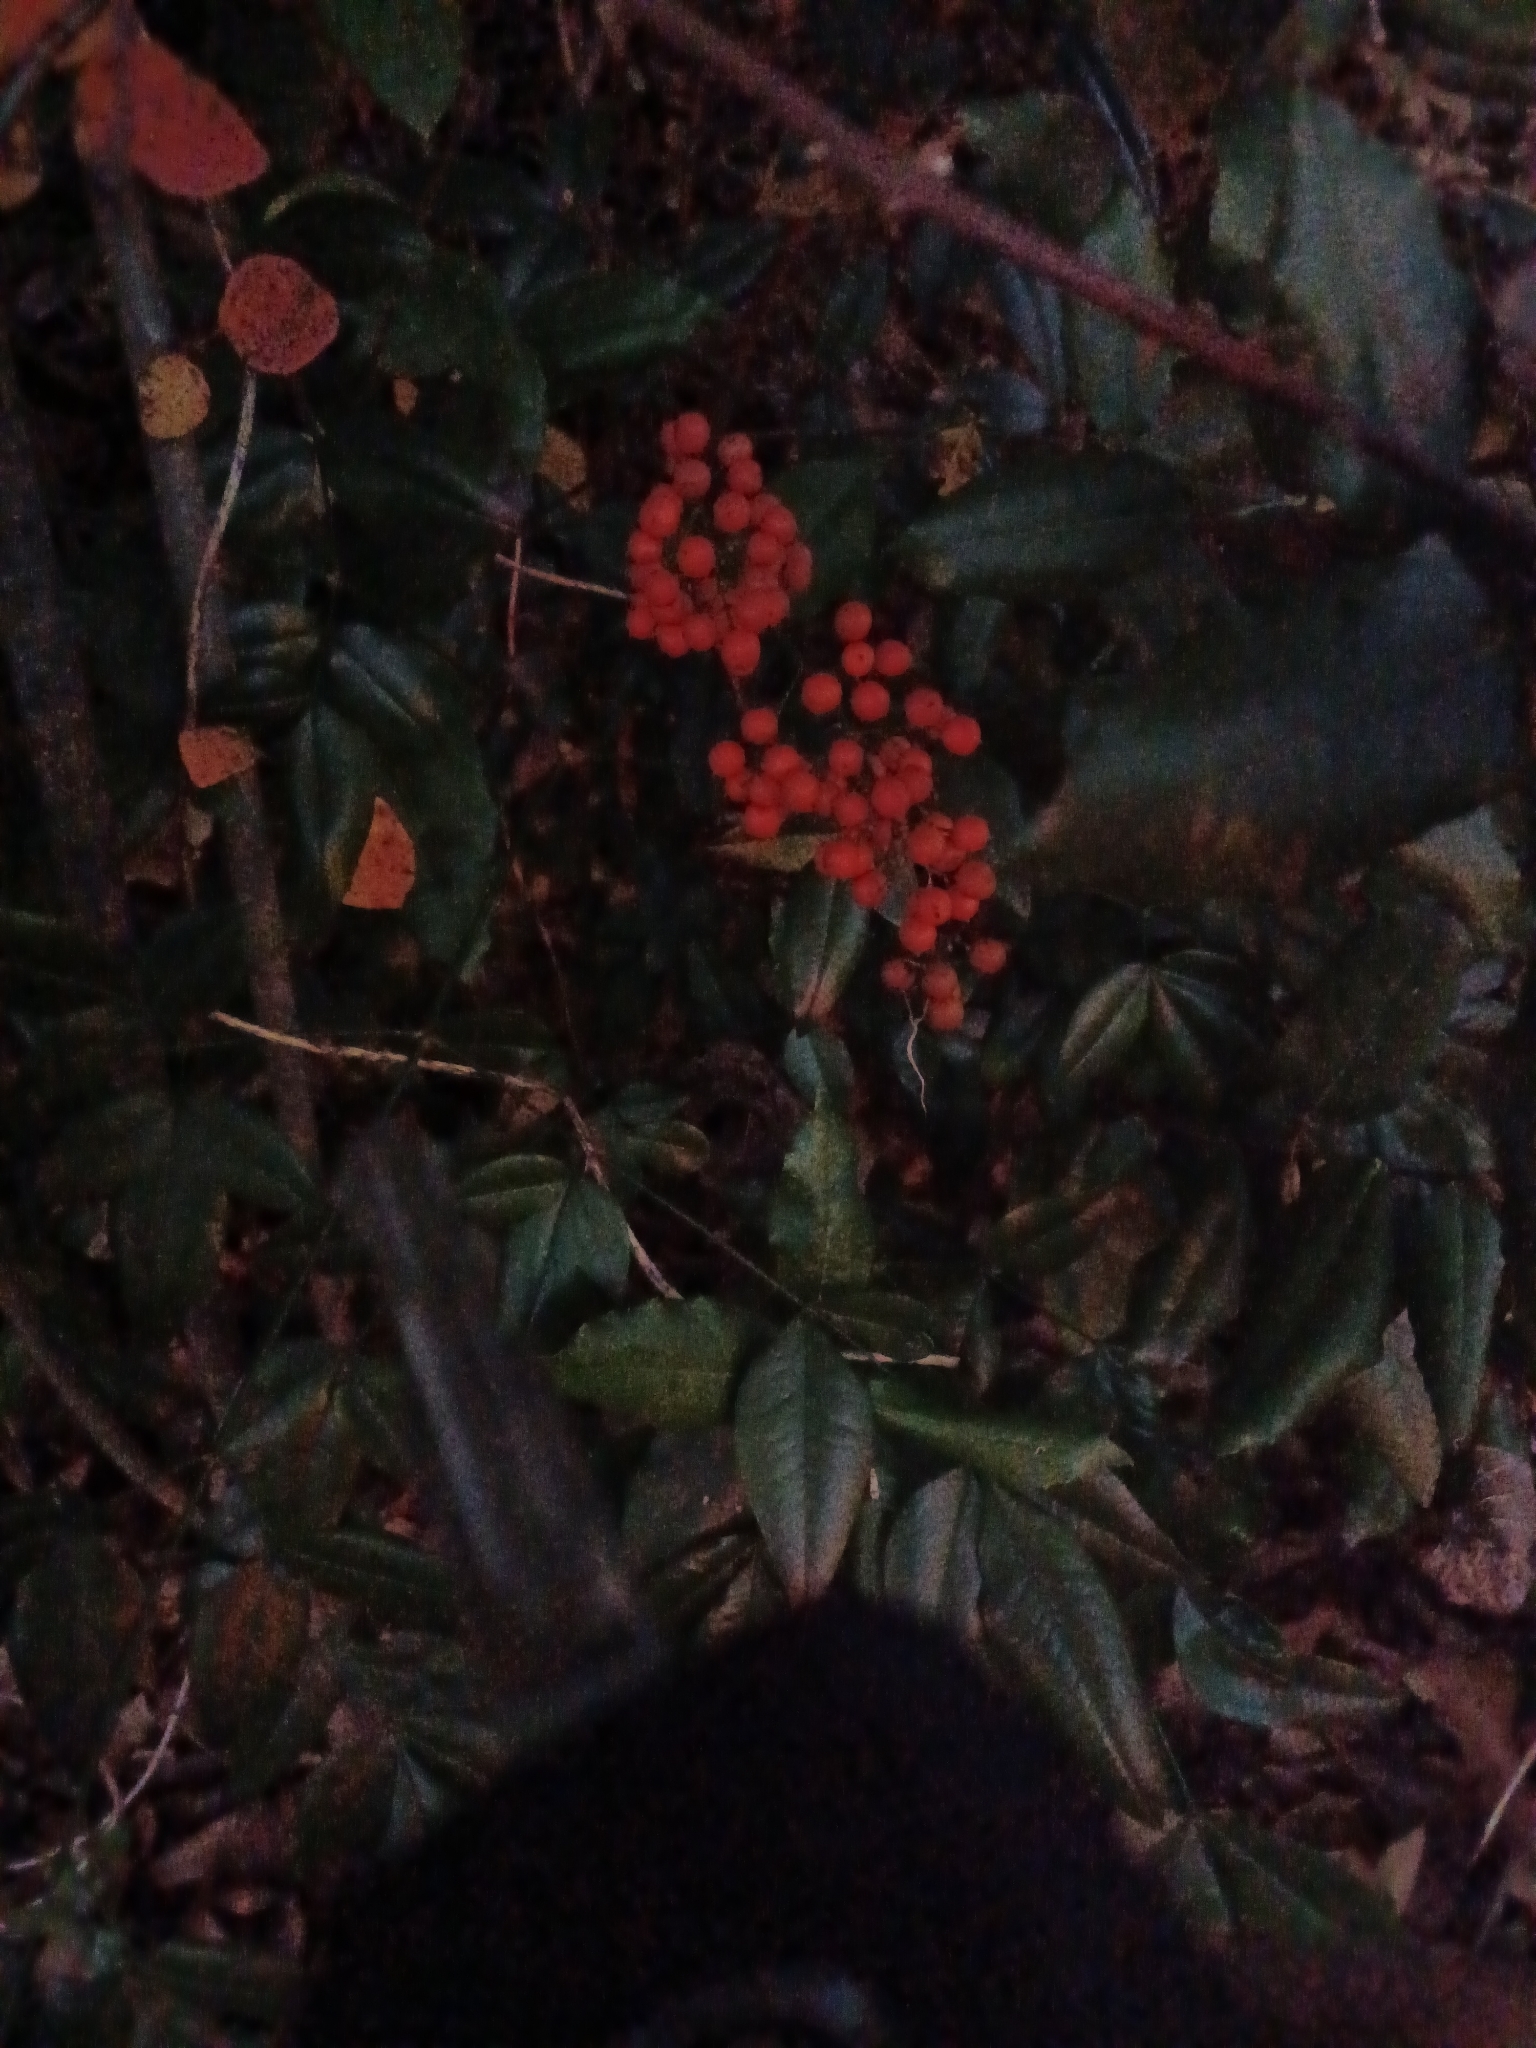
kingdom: Plantae
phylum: Tracheophyta
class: Magnoliopsida
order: Ranunculales
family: Berberidaceae
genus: Nandina
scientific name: Nandina domestica
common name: Sacred bamboo
